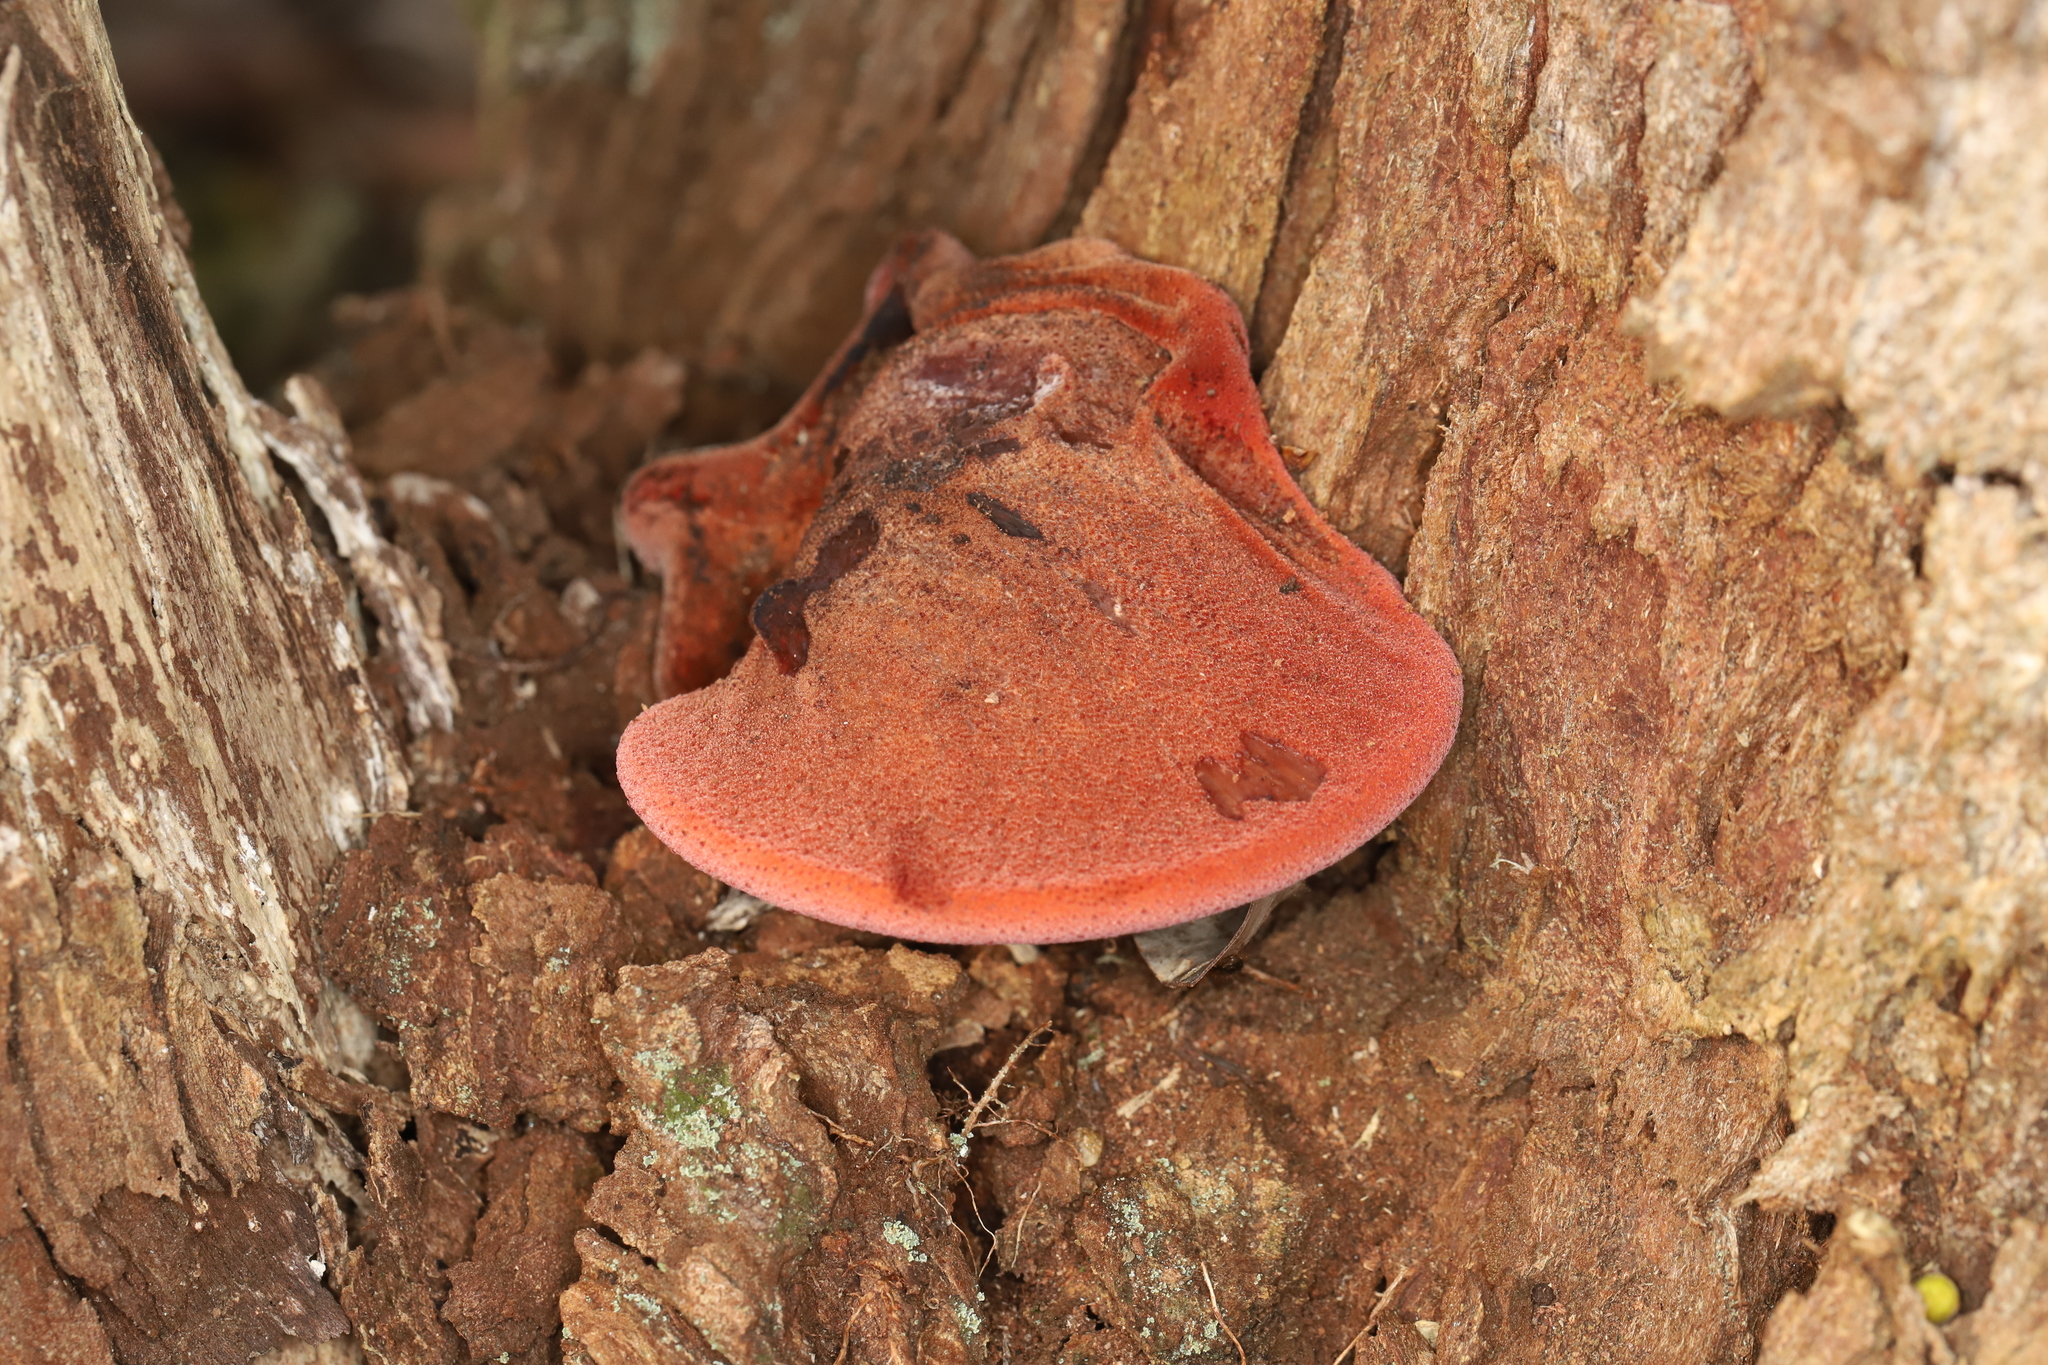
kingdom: Fungi
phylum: Basidiomycota
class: Agaricomycetes
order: Agaricales
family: Fistulinaceae
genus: Fistulina
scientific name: Fistulina spiculifera
